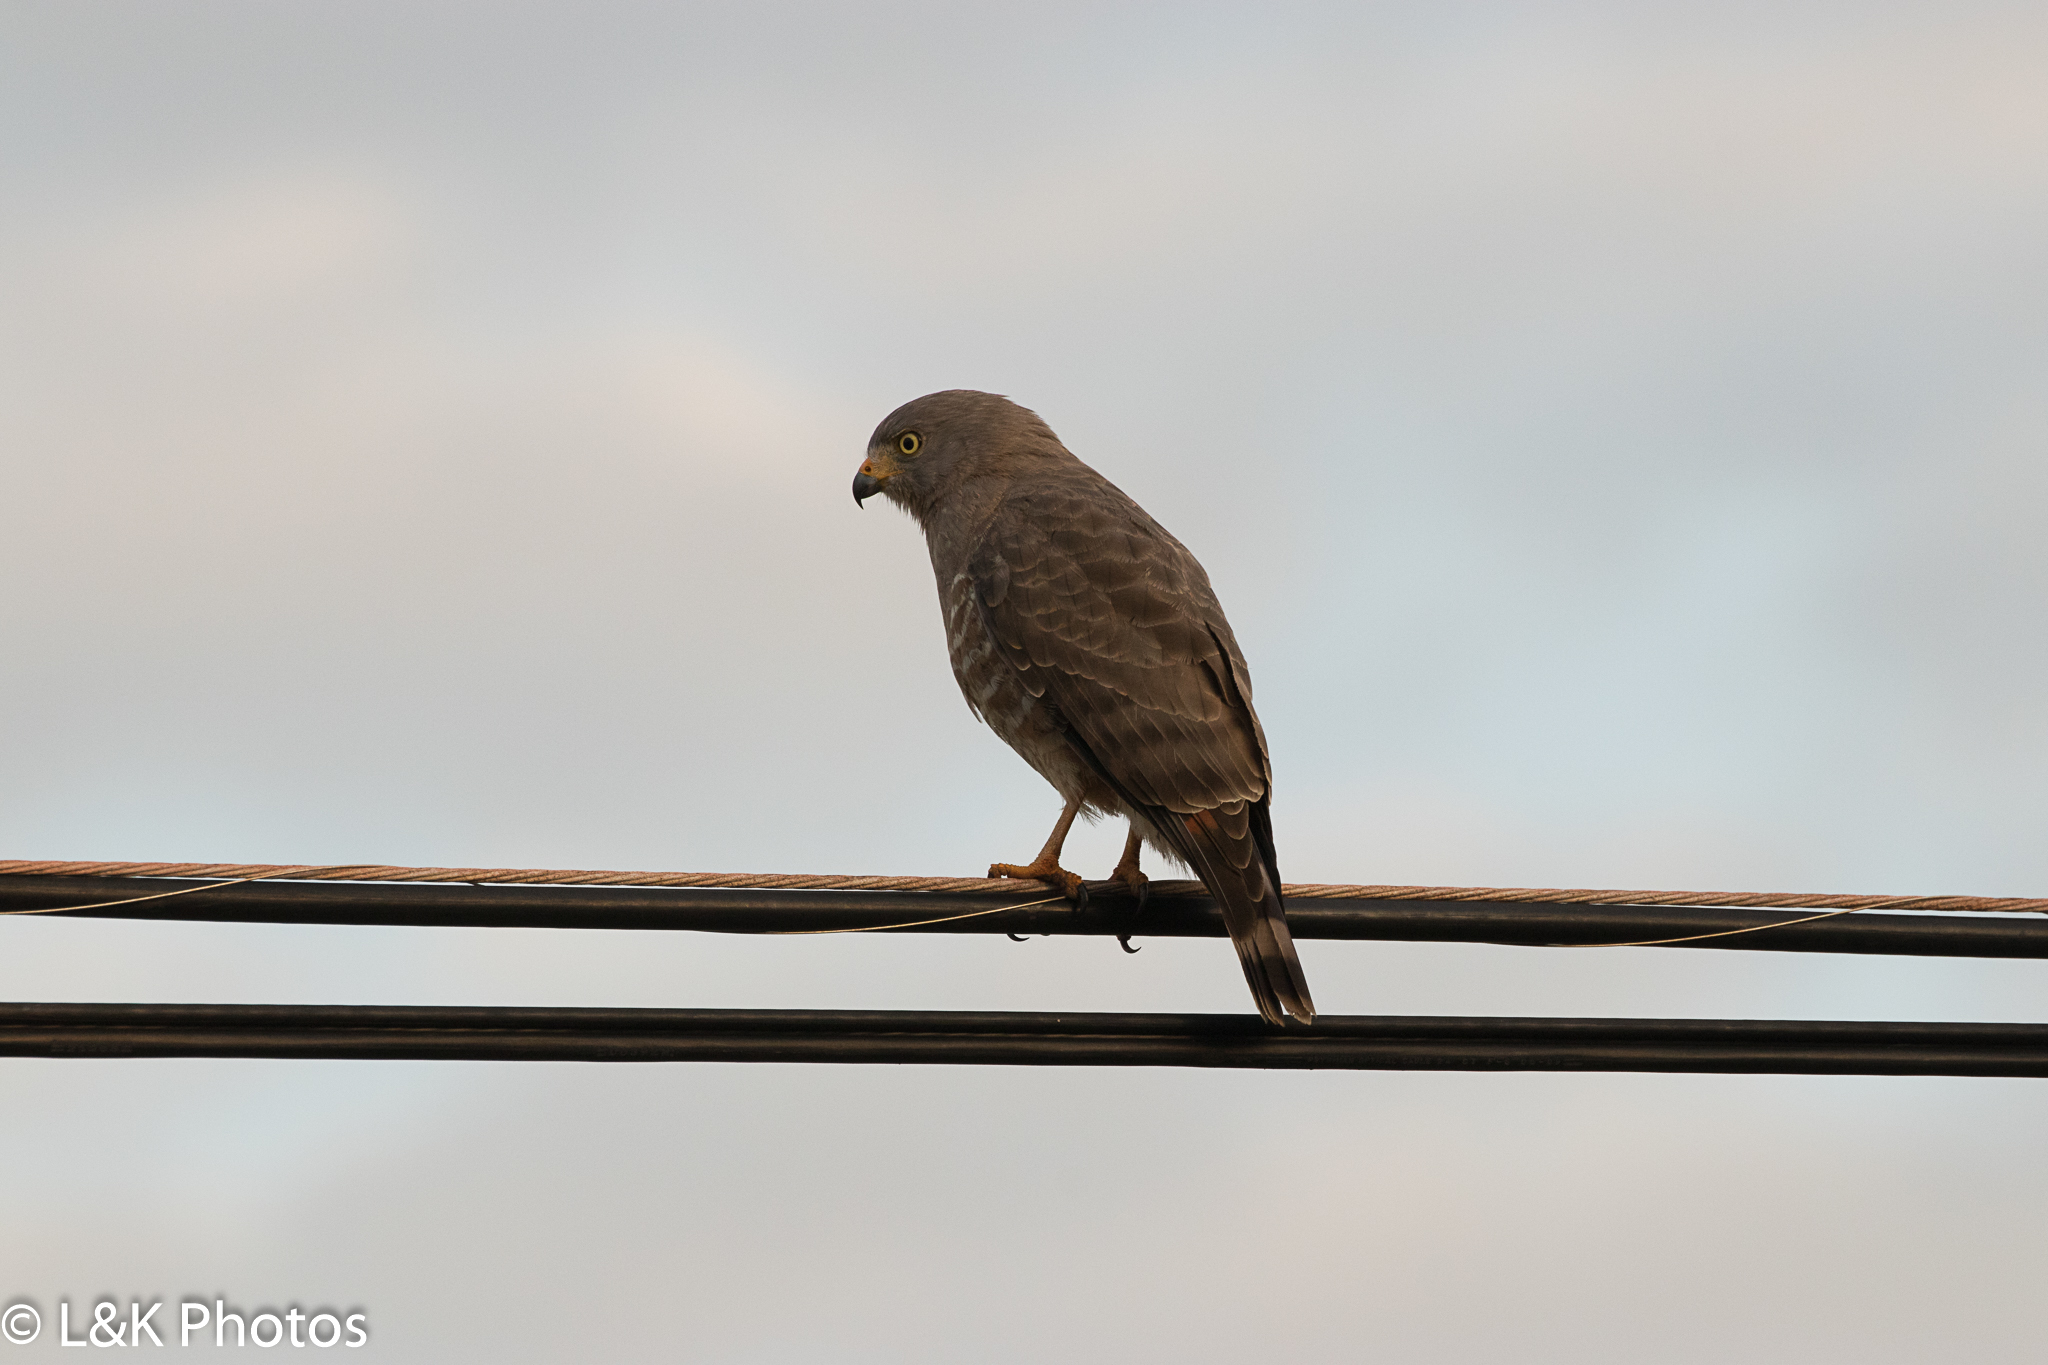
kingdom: Animalia
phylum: Chordata
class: Aves
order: Accipitriformes
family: Accipitridae
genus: Rupornis
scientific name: Rupornis magnirostris
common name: Roadside hawk
